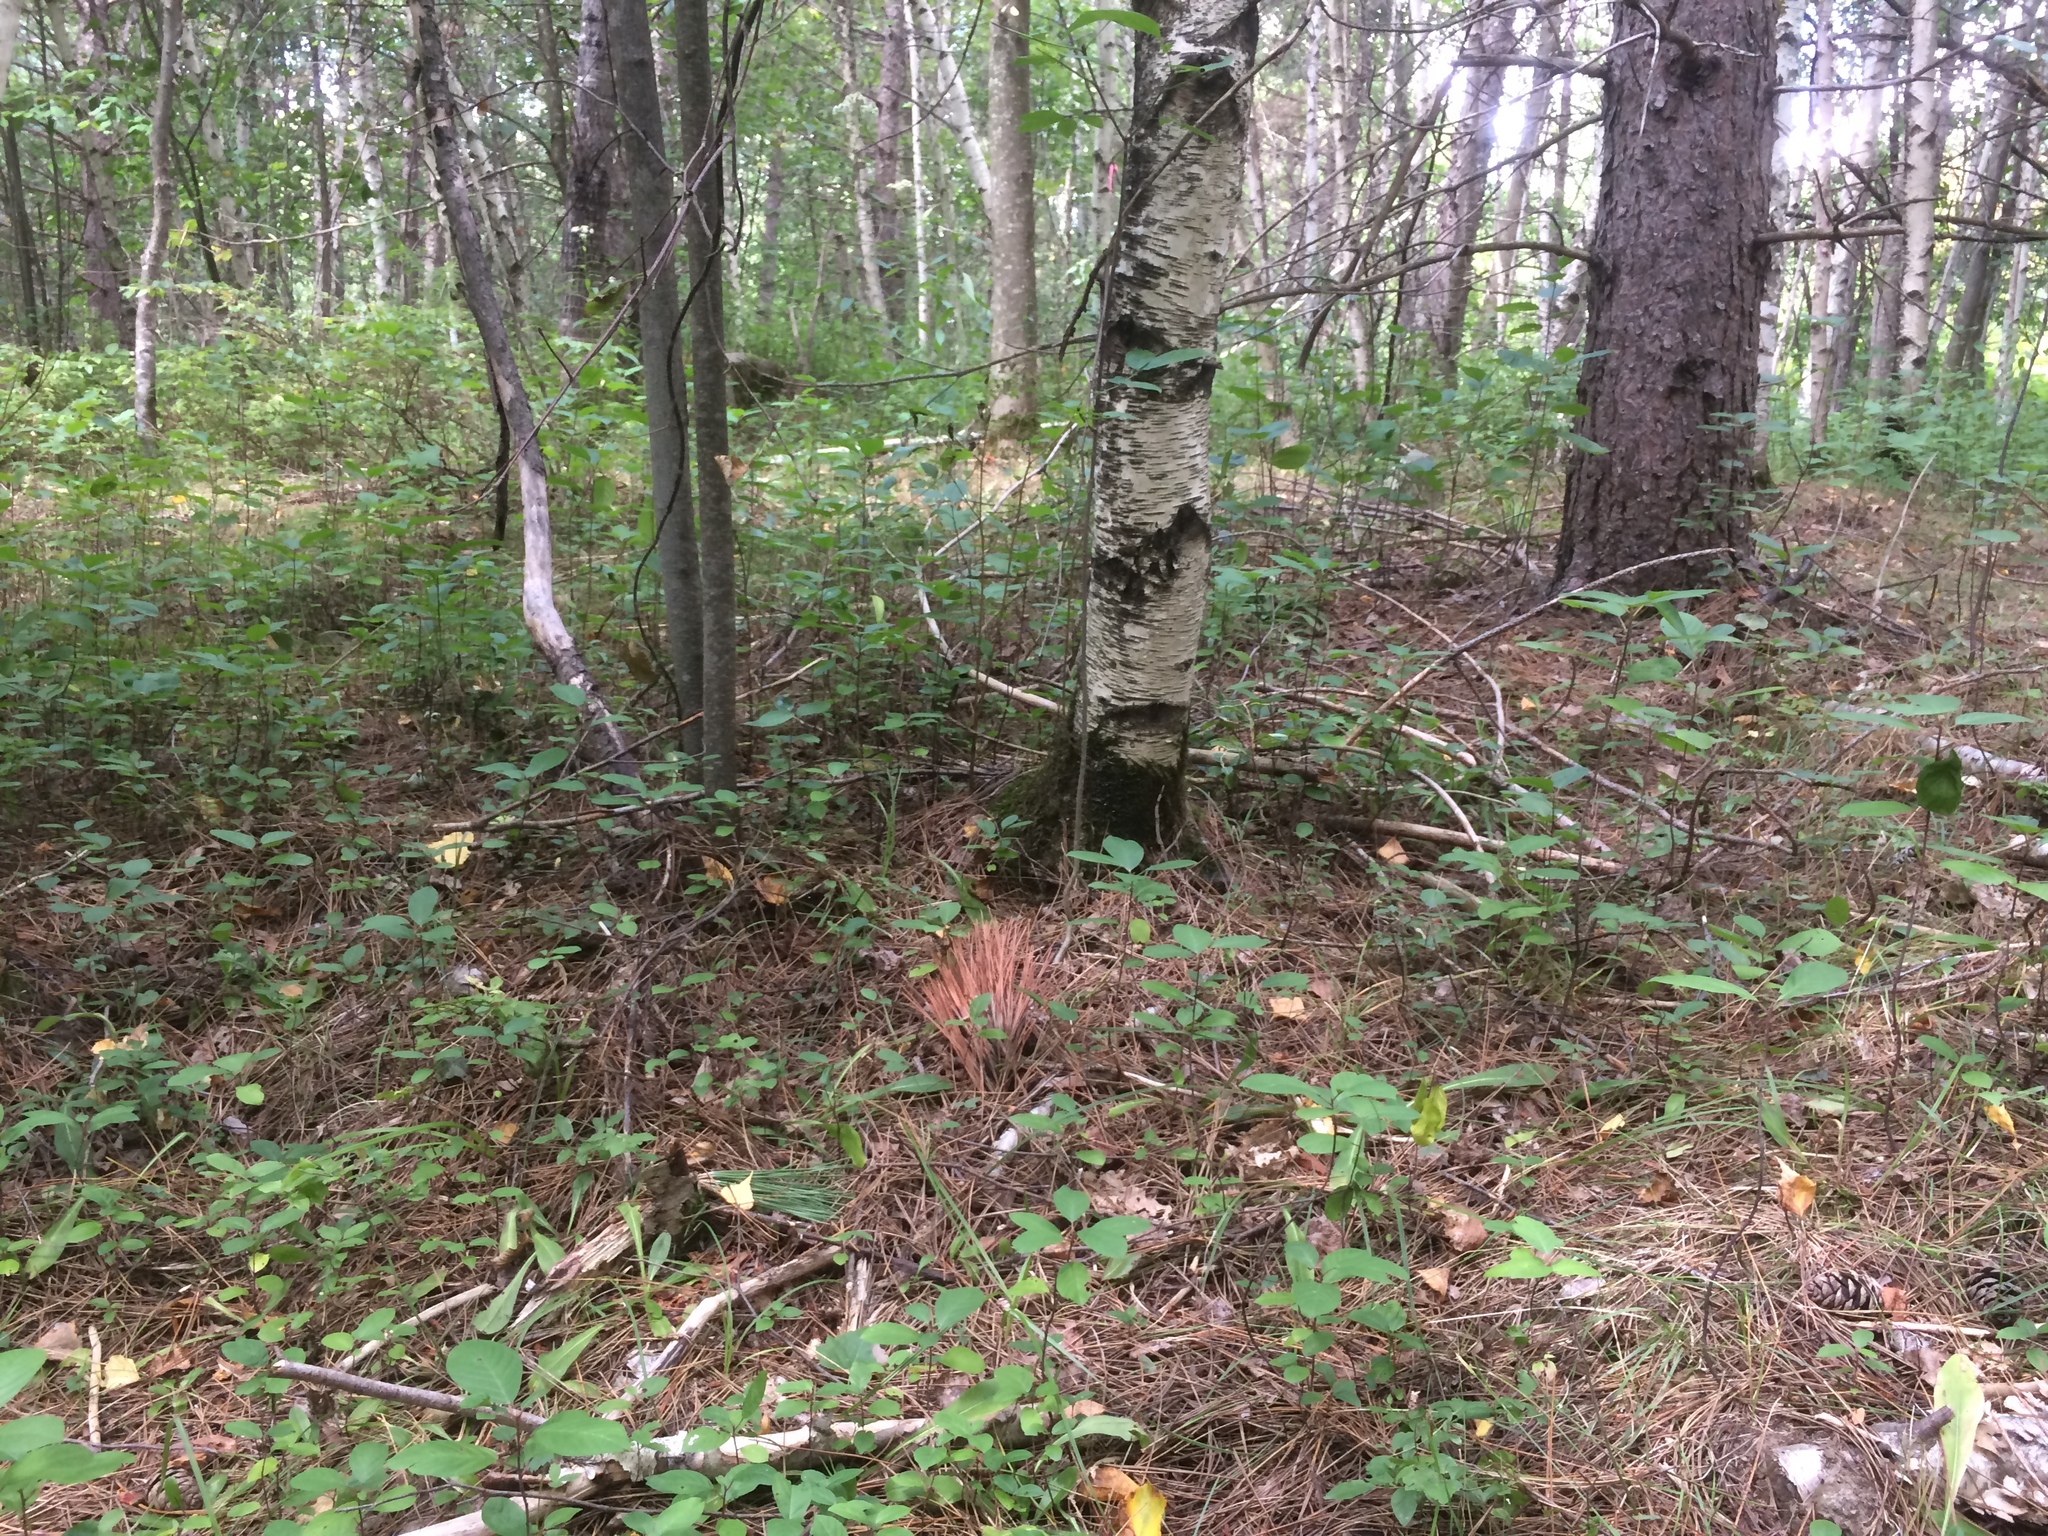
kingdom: Plantae
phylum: Tracheophyta
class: Magnoliopsida
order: Rosales
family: Rhamnaceae
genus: Frangula
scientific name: Frangula alnus
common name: Alder buckthorn
